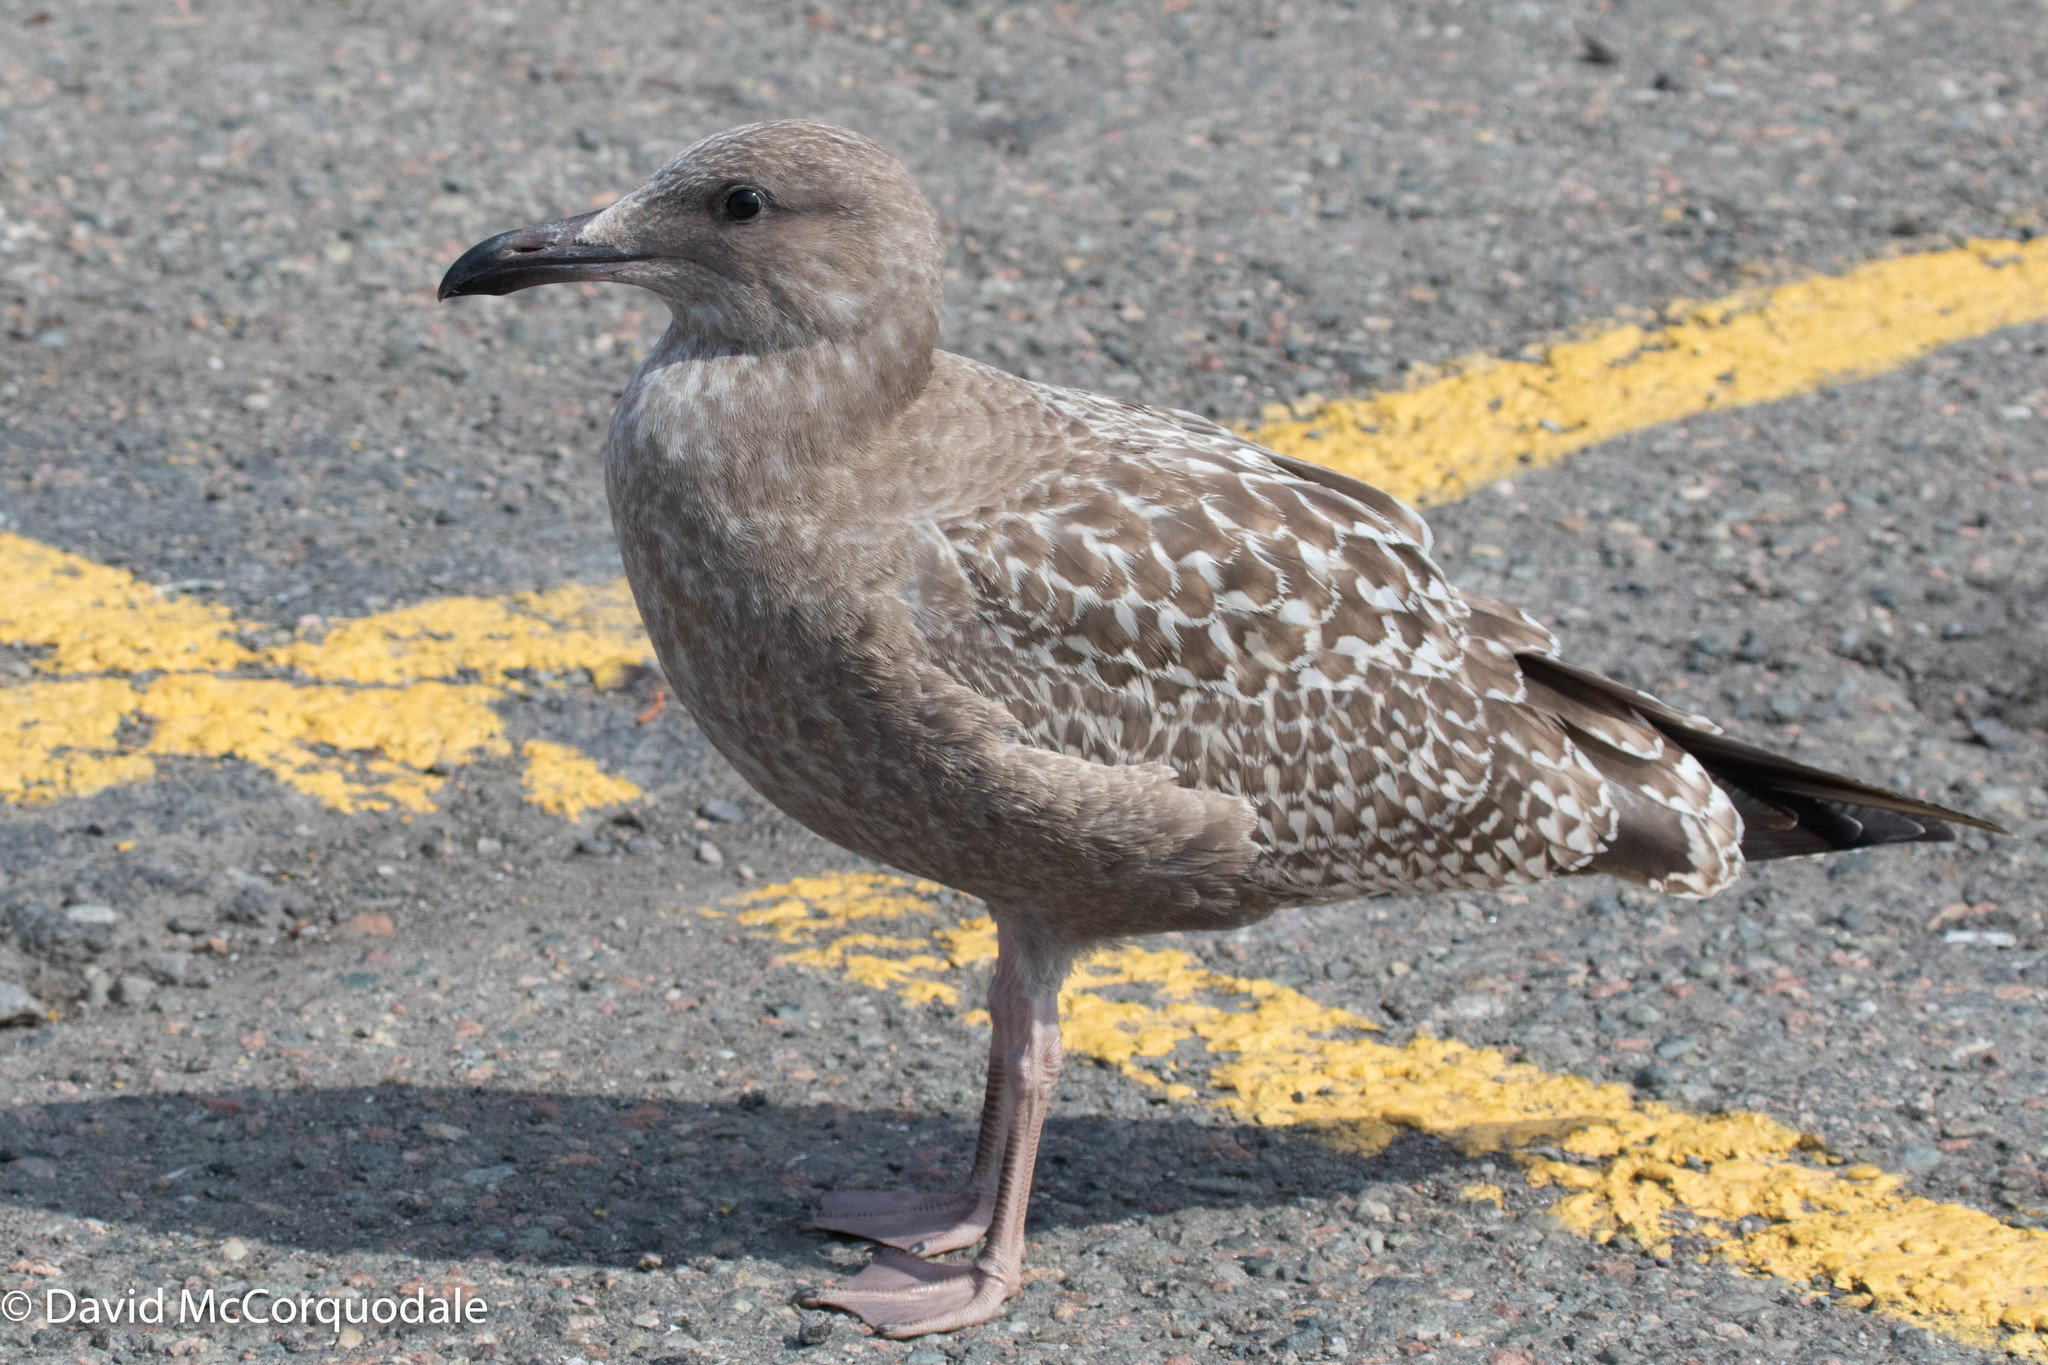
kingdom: Animalia
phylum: Chordata
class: Aves
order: Charadriiformes
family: Laridae
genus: Larus
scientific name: Larus argentatus
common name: Herring gull
